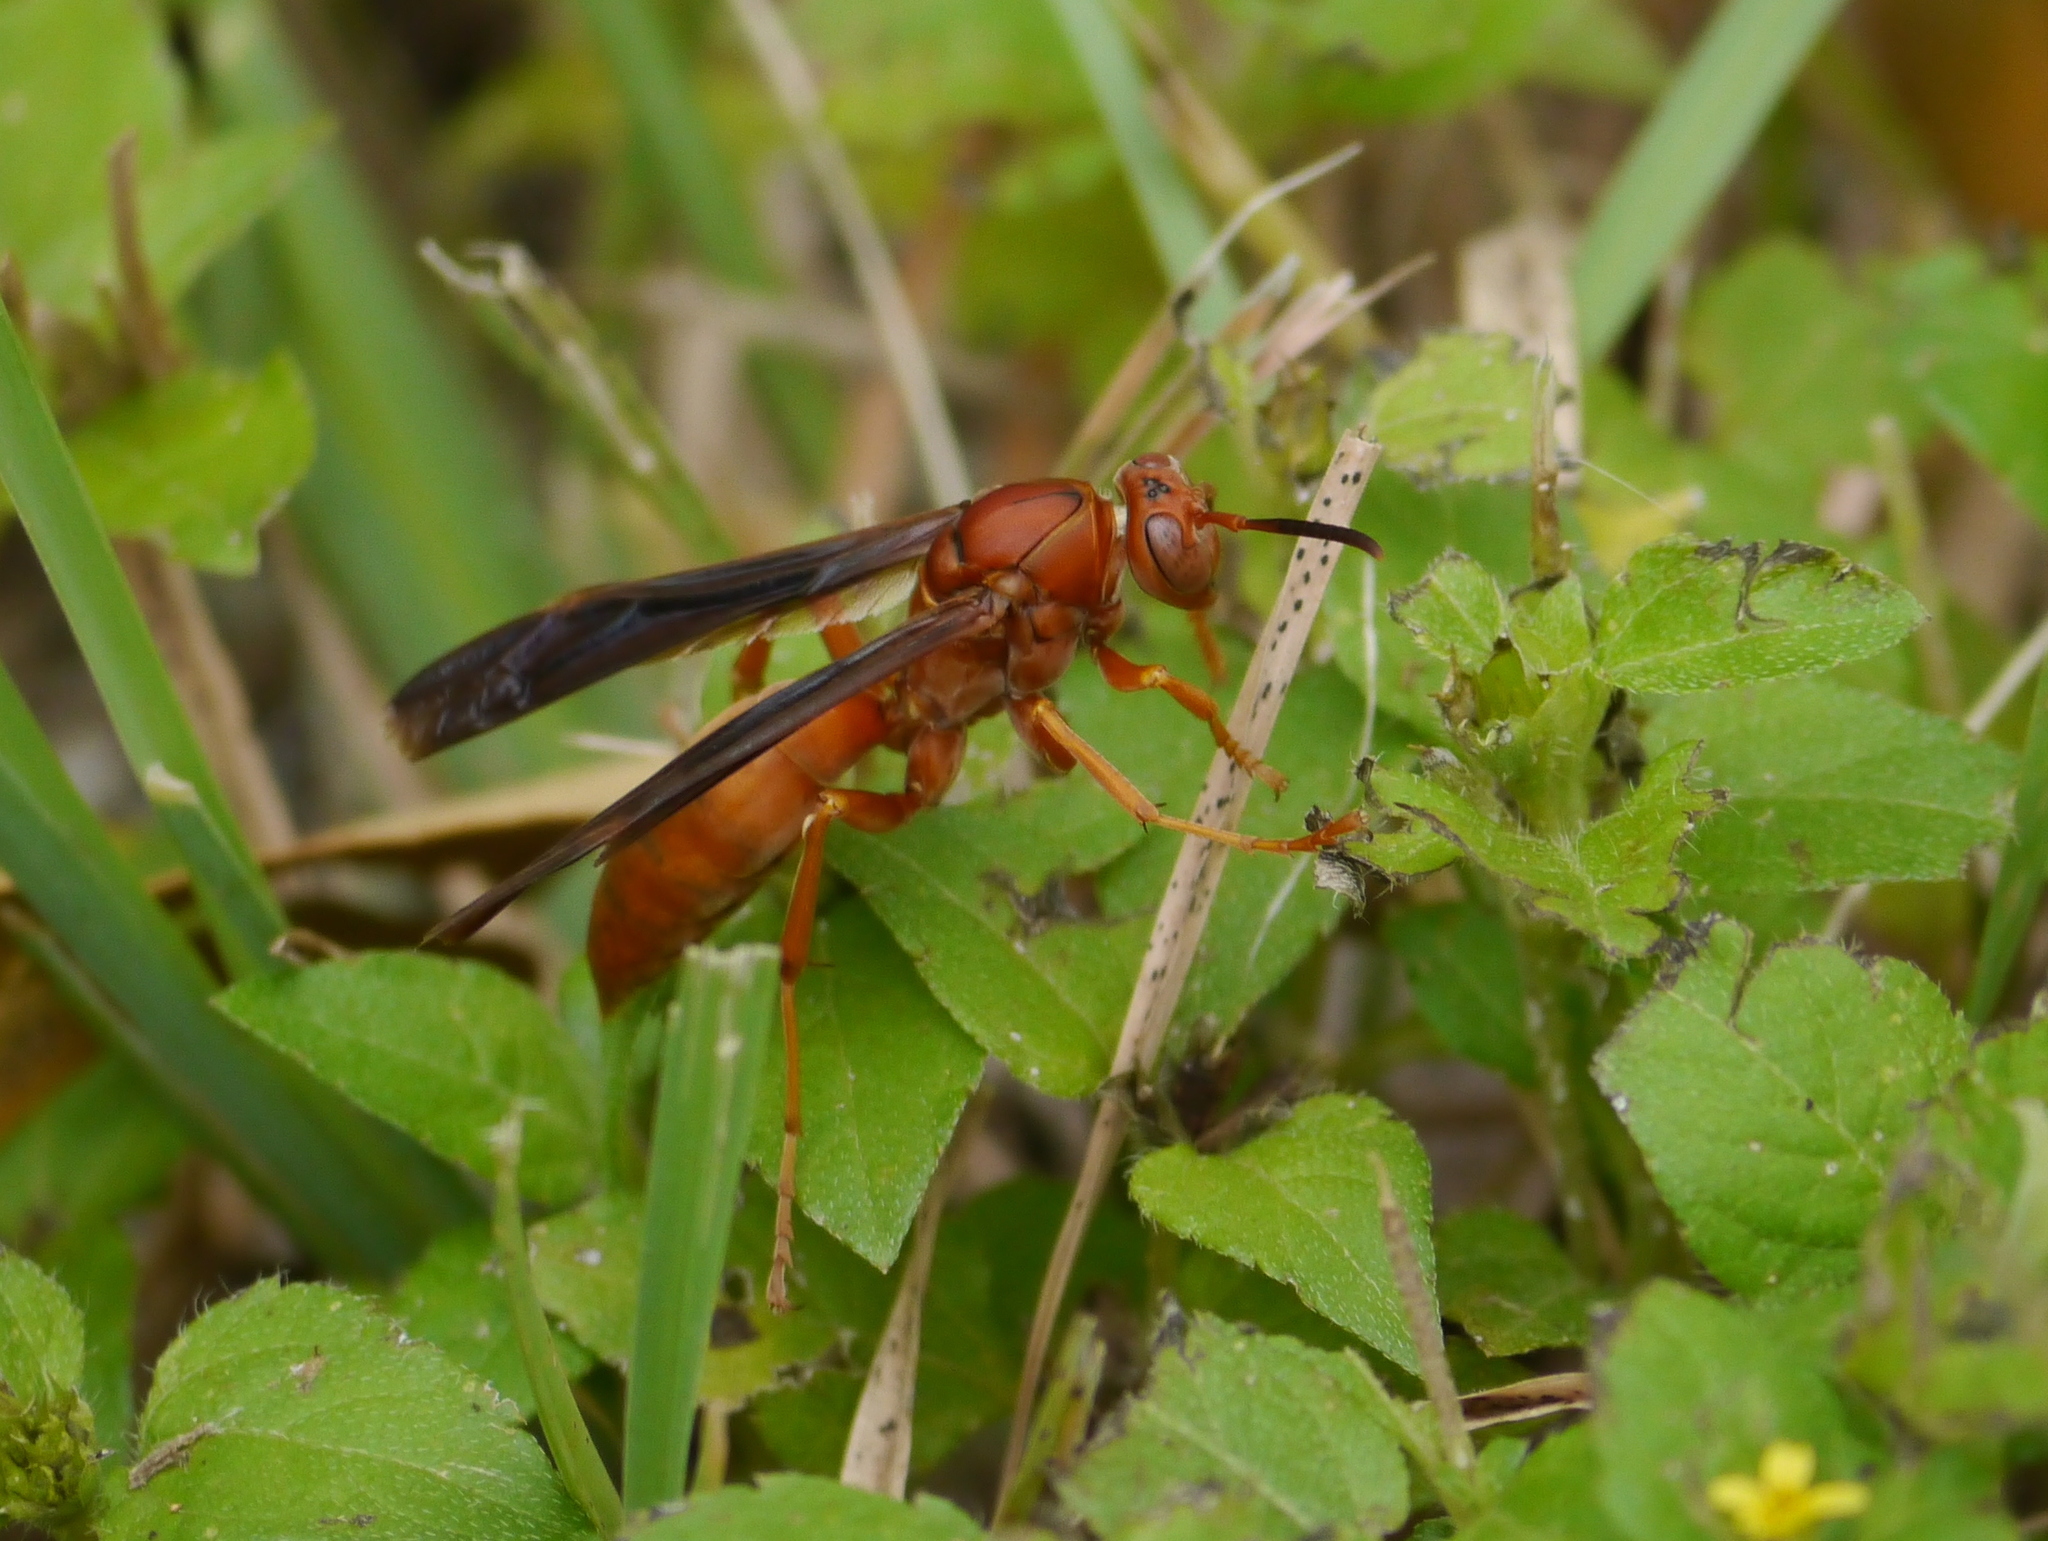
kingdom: Animalia
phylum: Arthropoda
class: Insecta
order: Hymenoptera
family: Eumenidae
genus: Polistes
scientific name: Polistes
